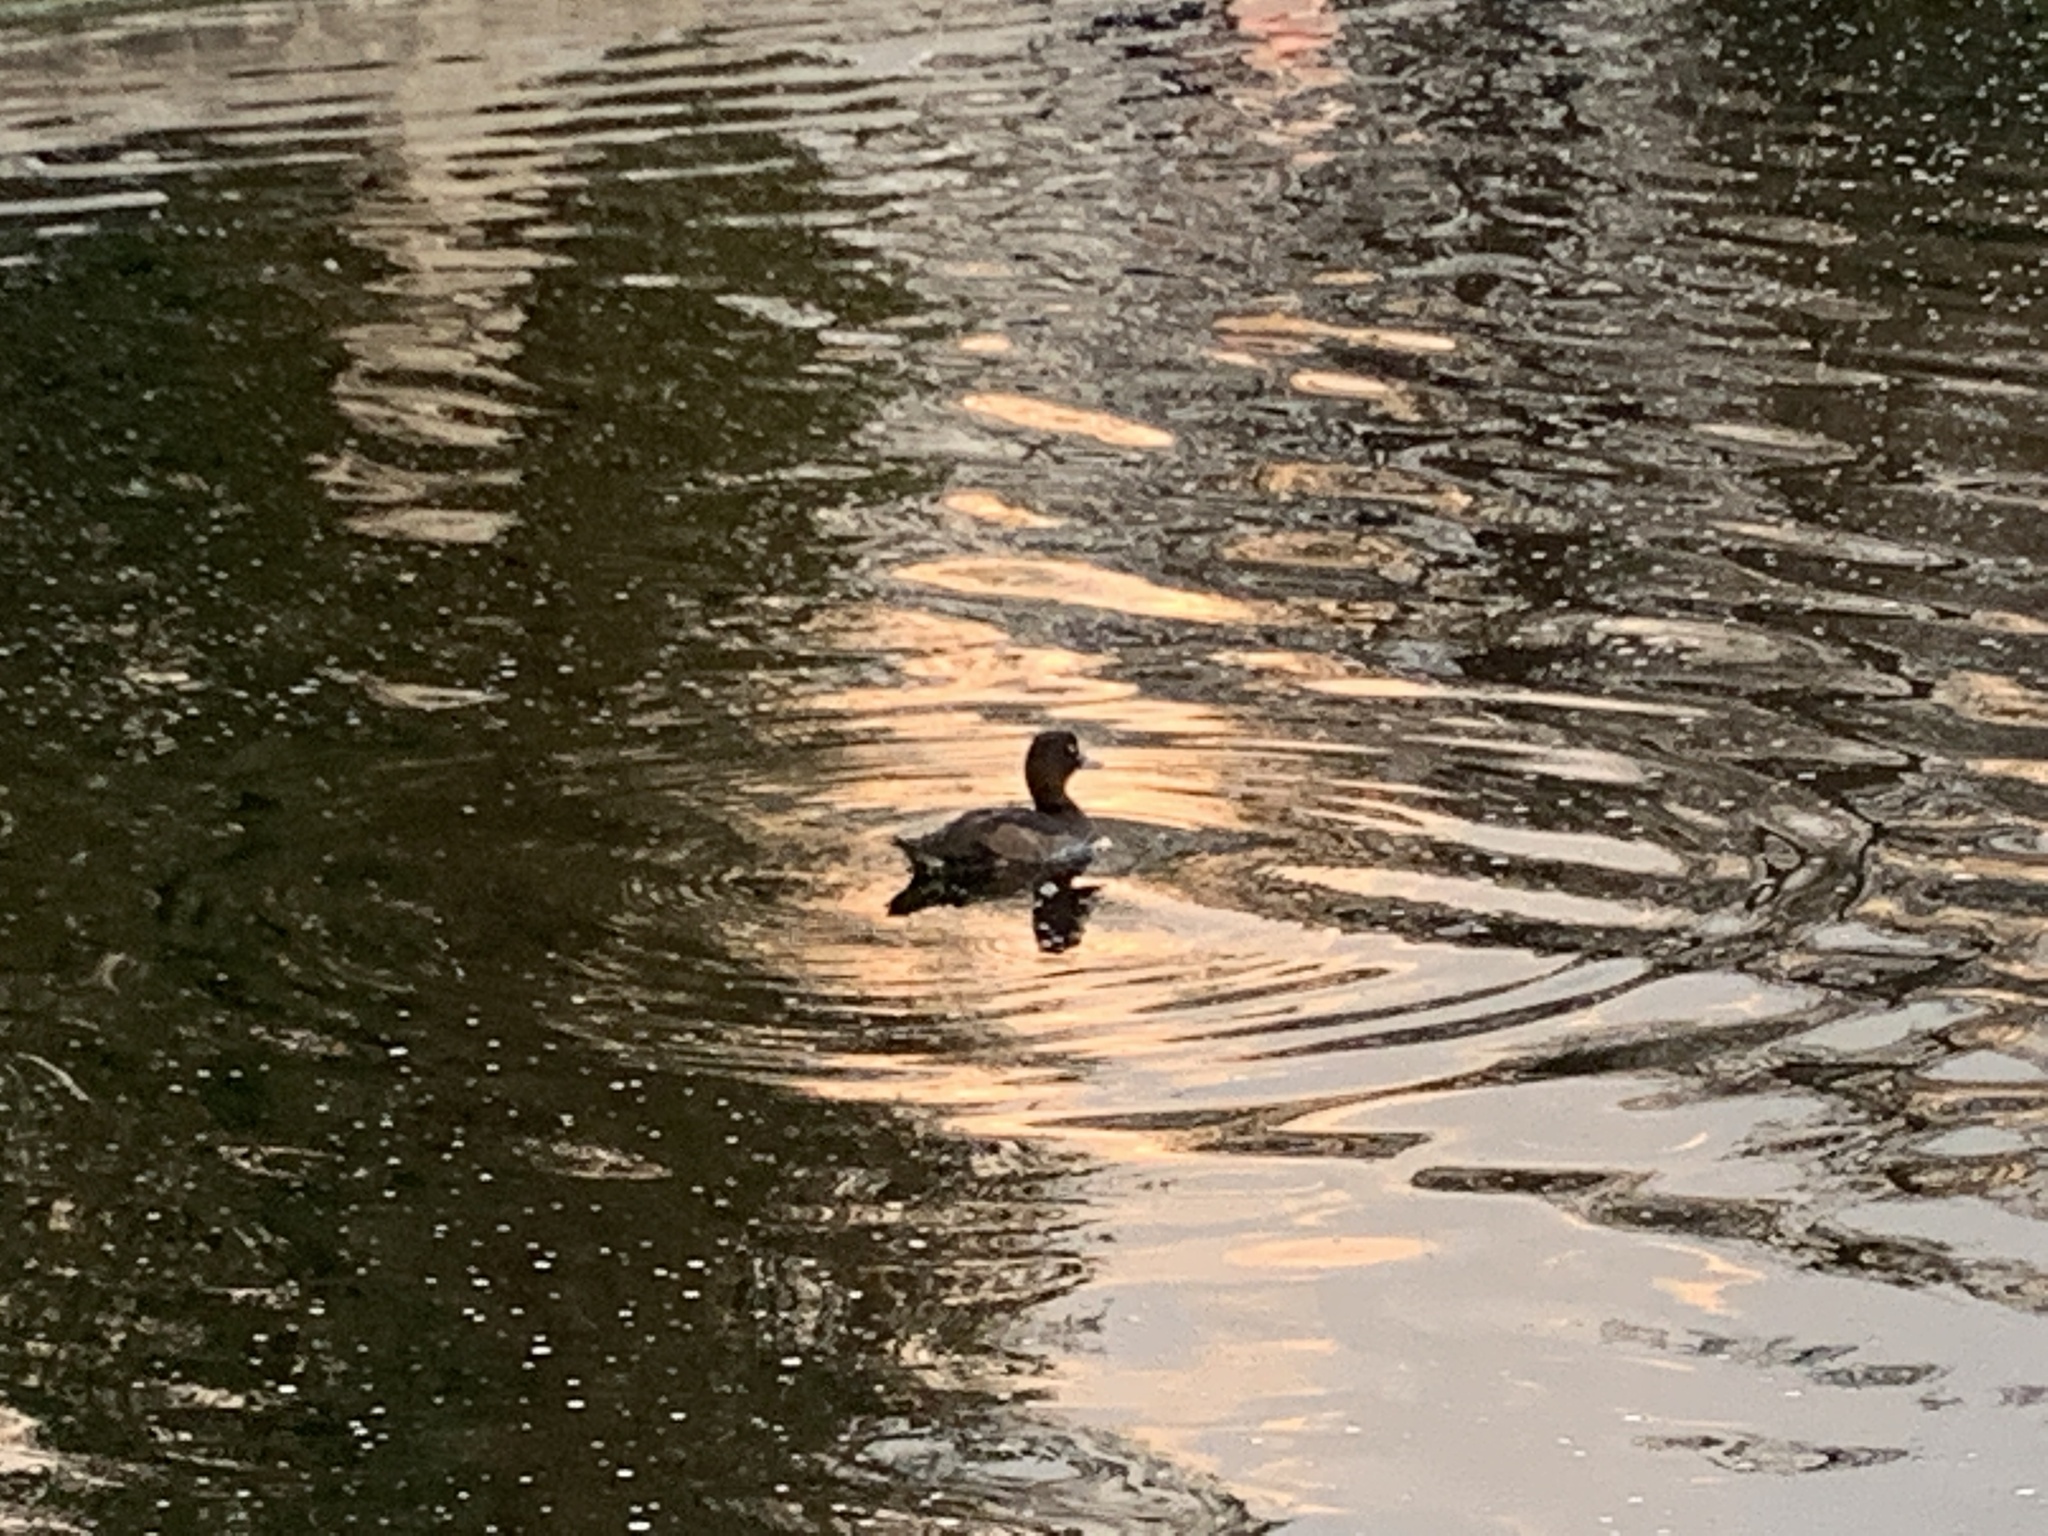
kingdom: Animalia
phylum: Chordata
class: Aves
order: Anseriformes
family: Anatidae
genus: Aythya
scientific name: Aythya fuligula
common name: Tufted duck
